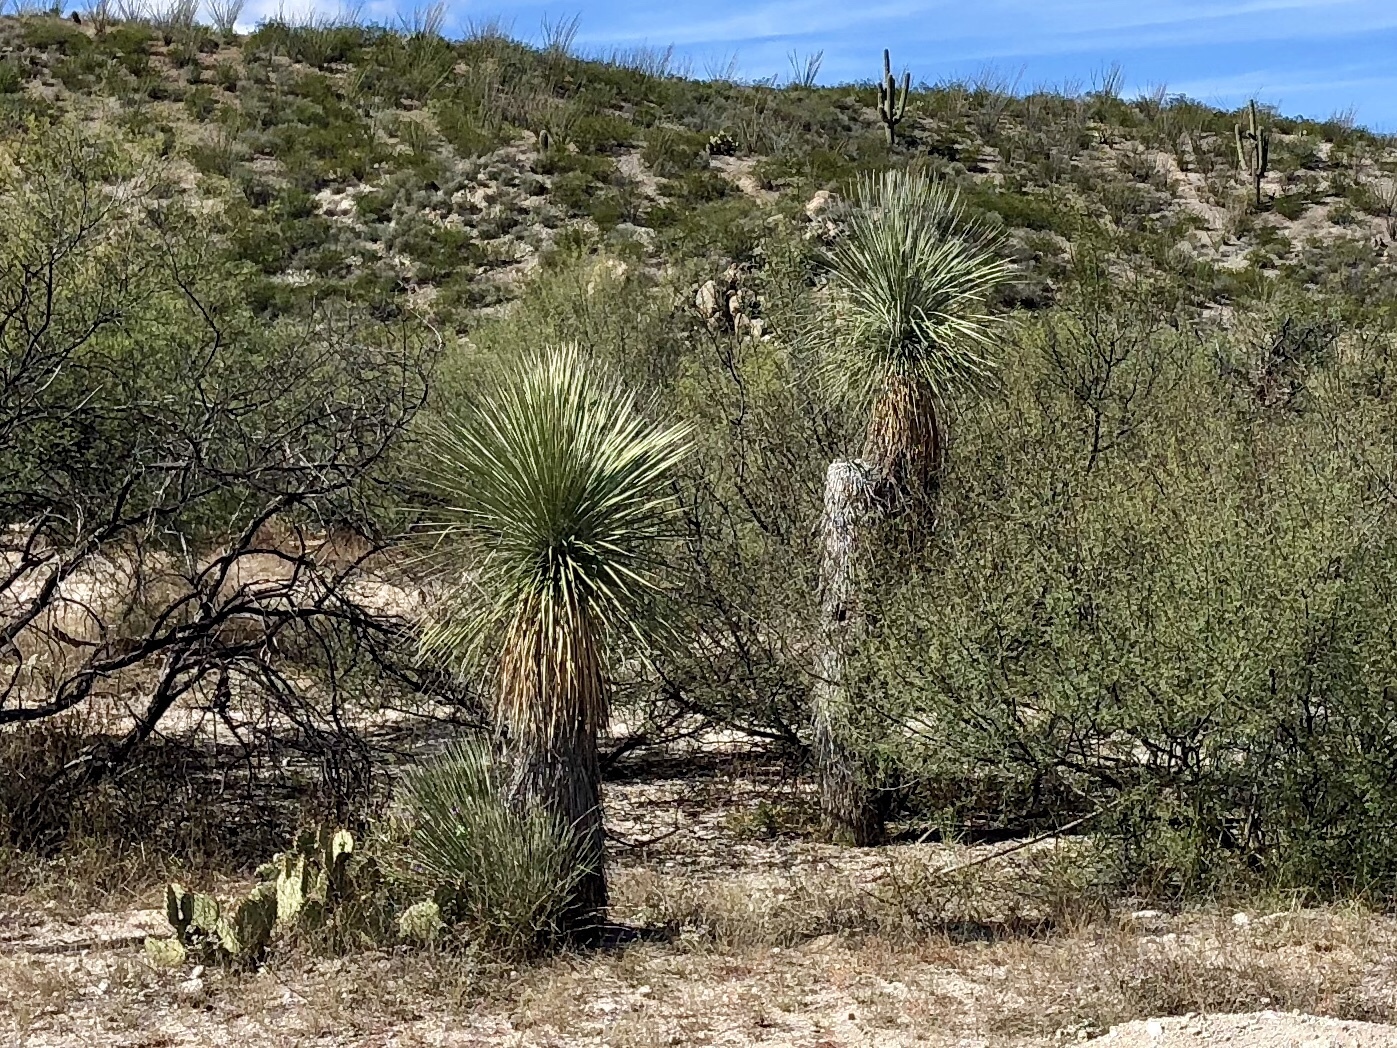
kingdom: Plantae
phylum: Tracheophyta
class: Liliopsida
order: Asparagales
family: Asparagaceae
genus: Yucca
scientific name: Yucca elata
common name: Palmella
